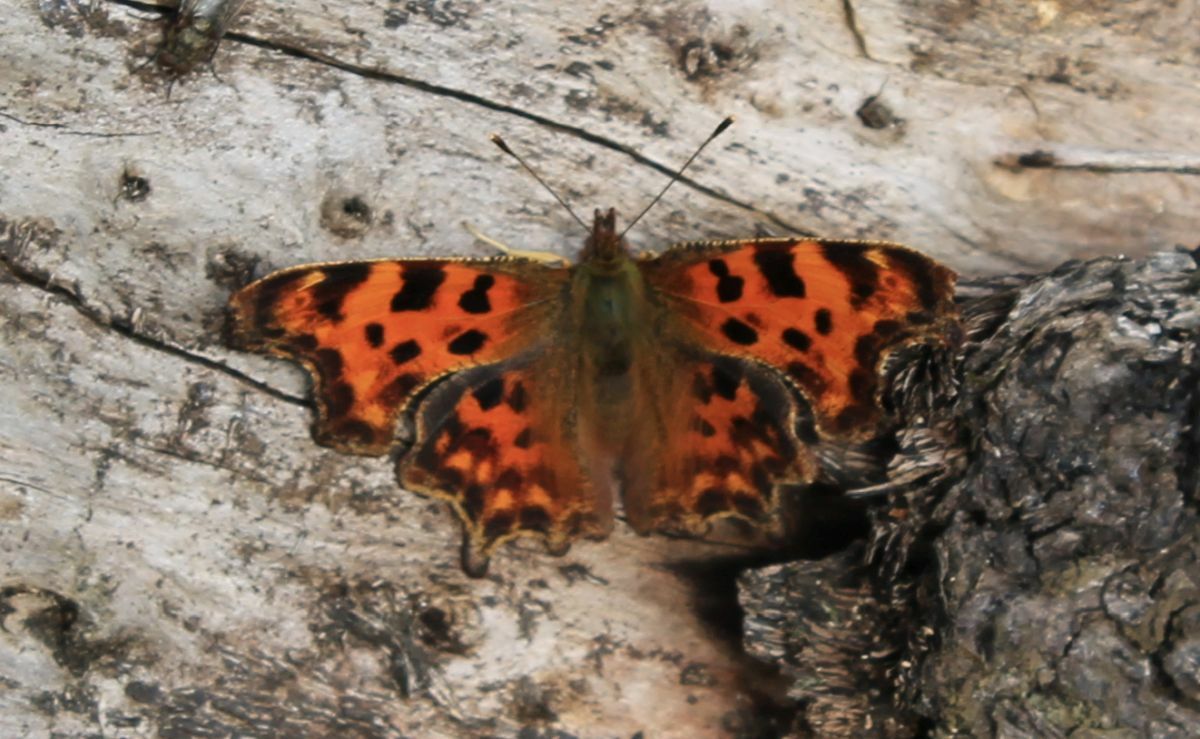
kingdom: Animalia
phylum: Arthropoda
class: Insecta
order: Lepidoptera
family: Nymphalidae
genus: Polygonia
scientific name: Polygonia c-album
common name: Comma
